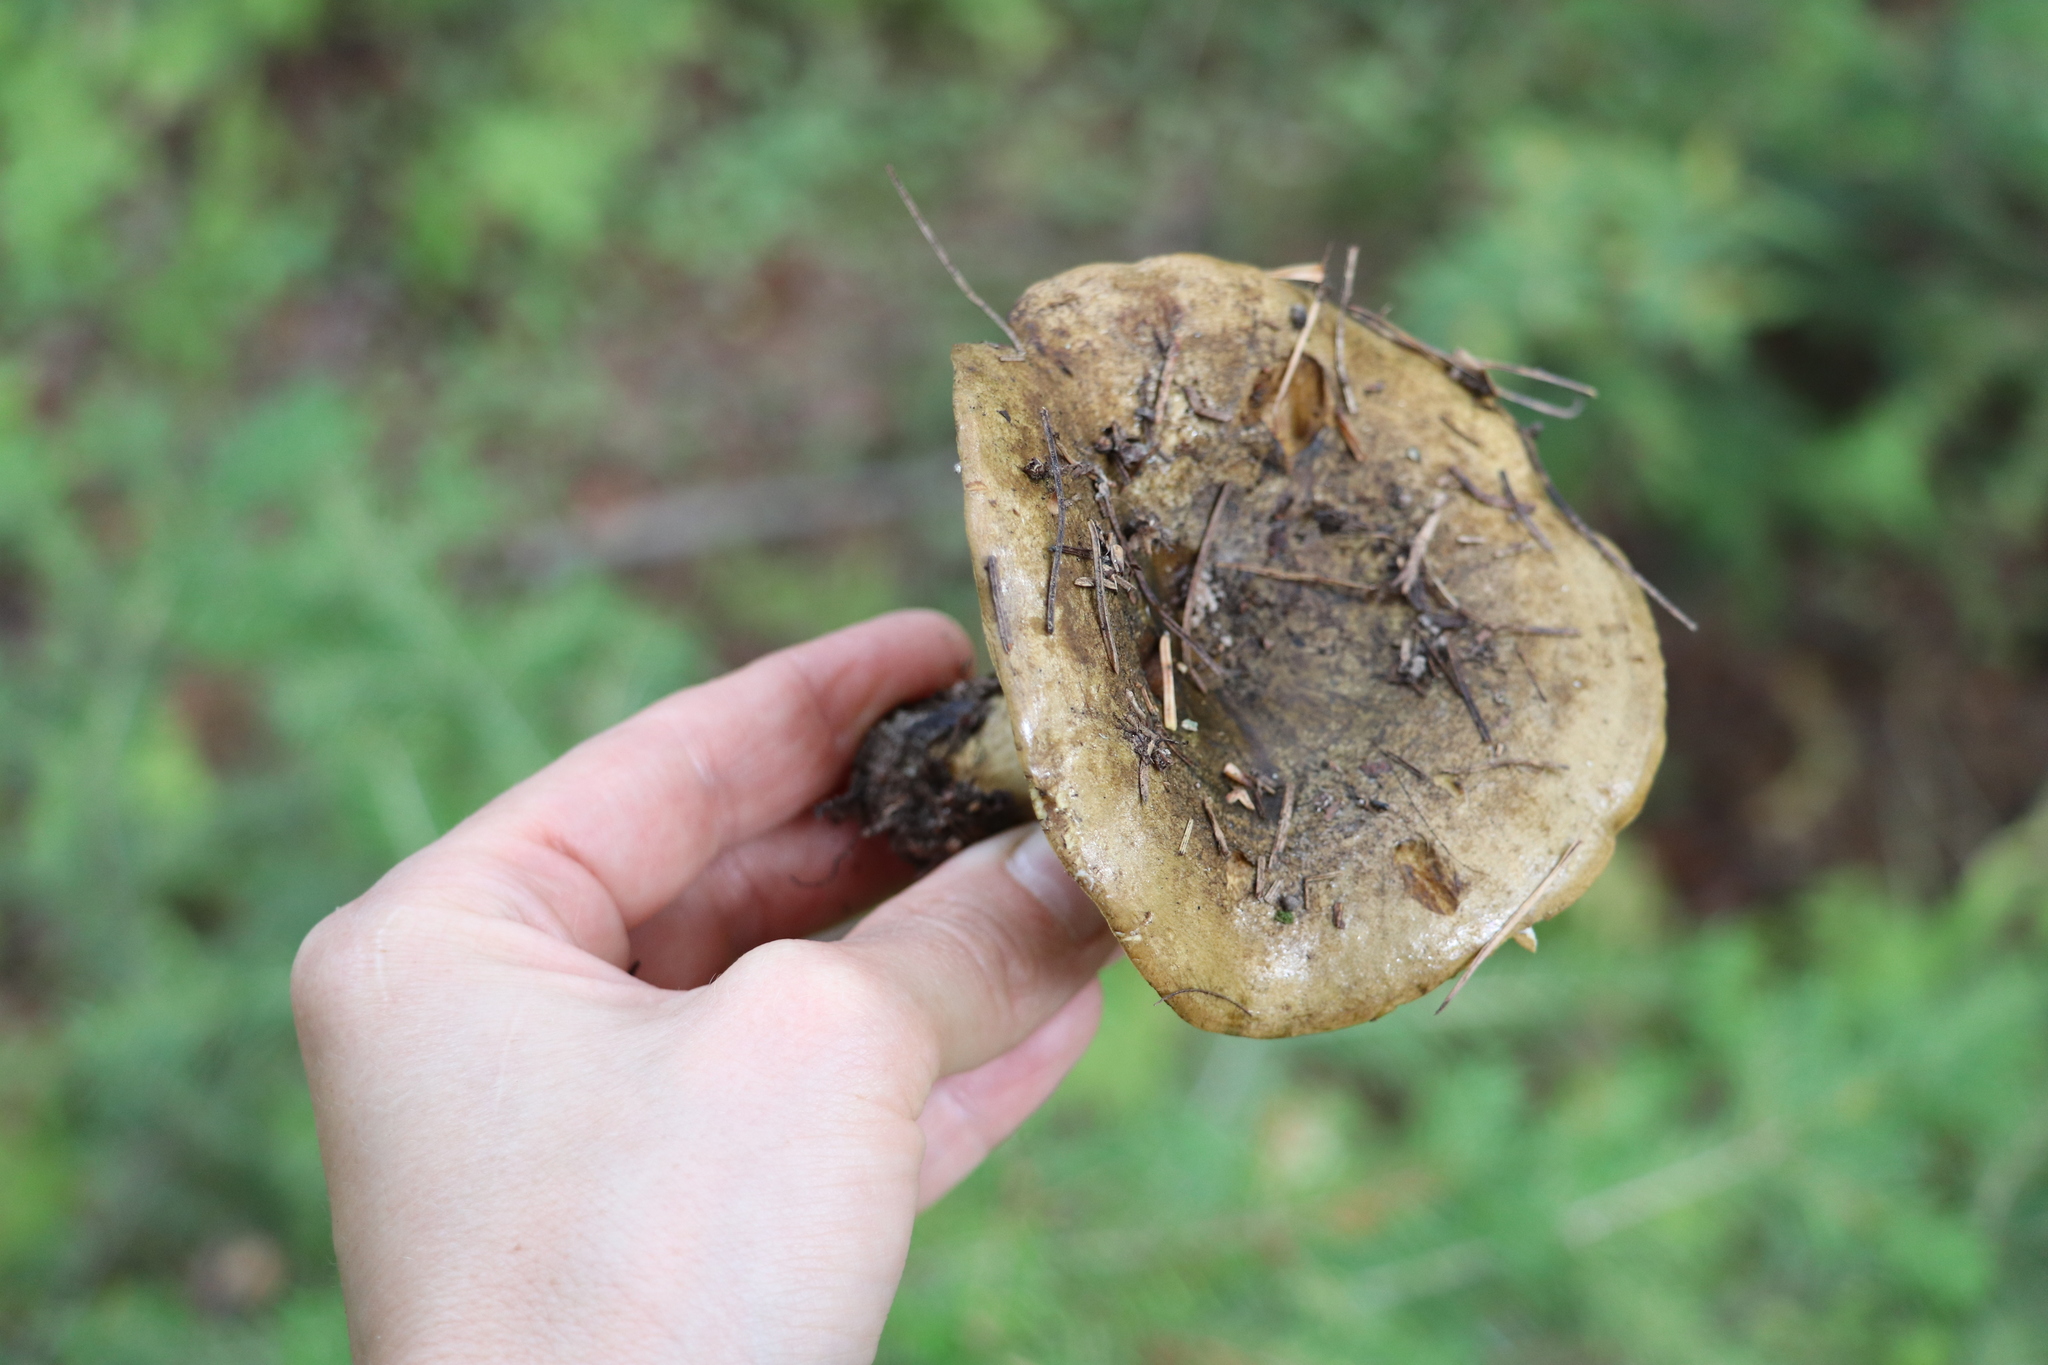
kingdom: Fungi
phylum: Basidiomycota
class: Agaricomycetes
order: Russulales
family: Russulaceae
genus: Lactarius
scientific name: Lactarius turpis
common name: Ugly milk-cap
